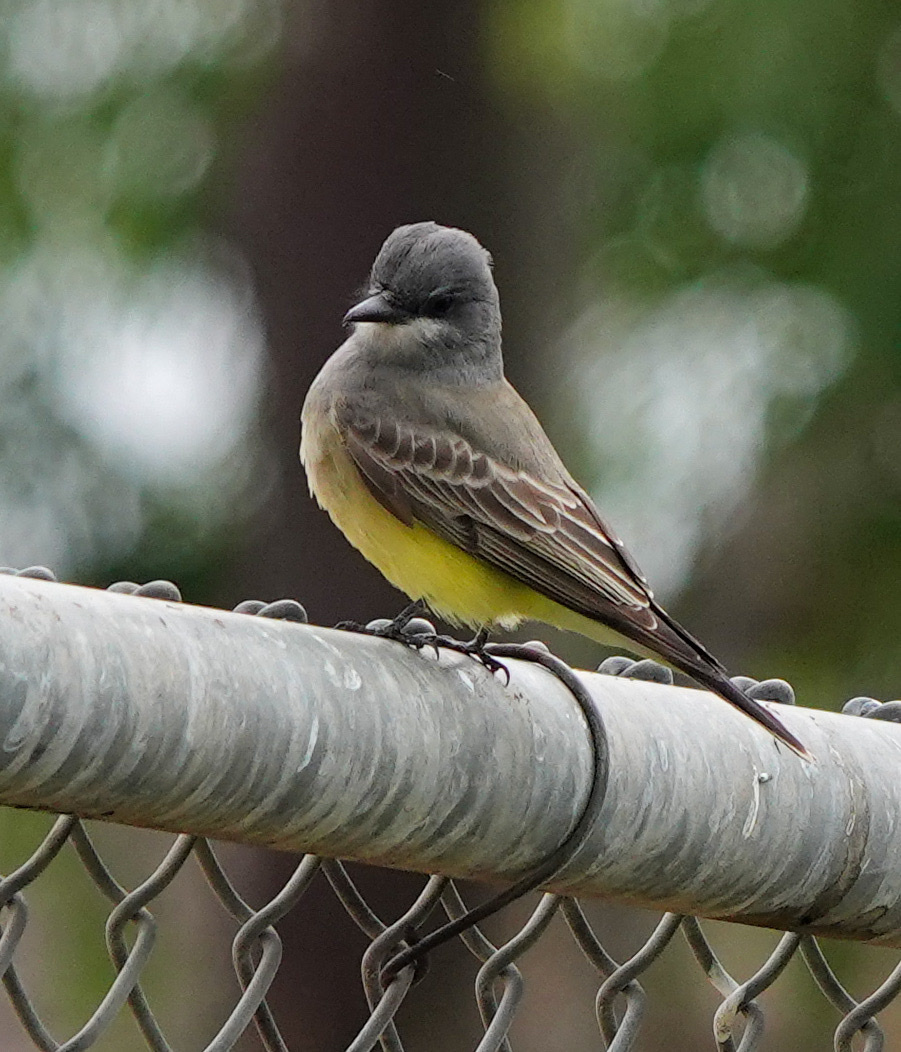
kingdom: Animalia
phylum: Chordata
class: Aves
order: Passeriformes
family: Tyrannidae
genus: Tyrannus
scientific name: Tyrannus vociferans
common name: Cassin's kingbird
